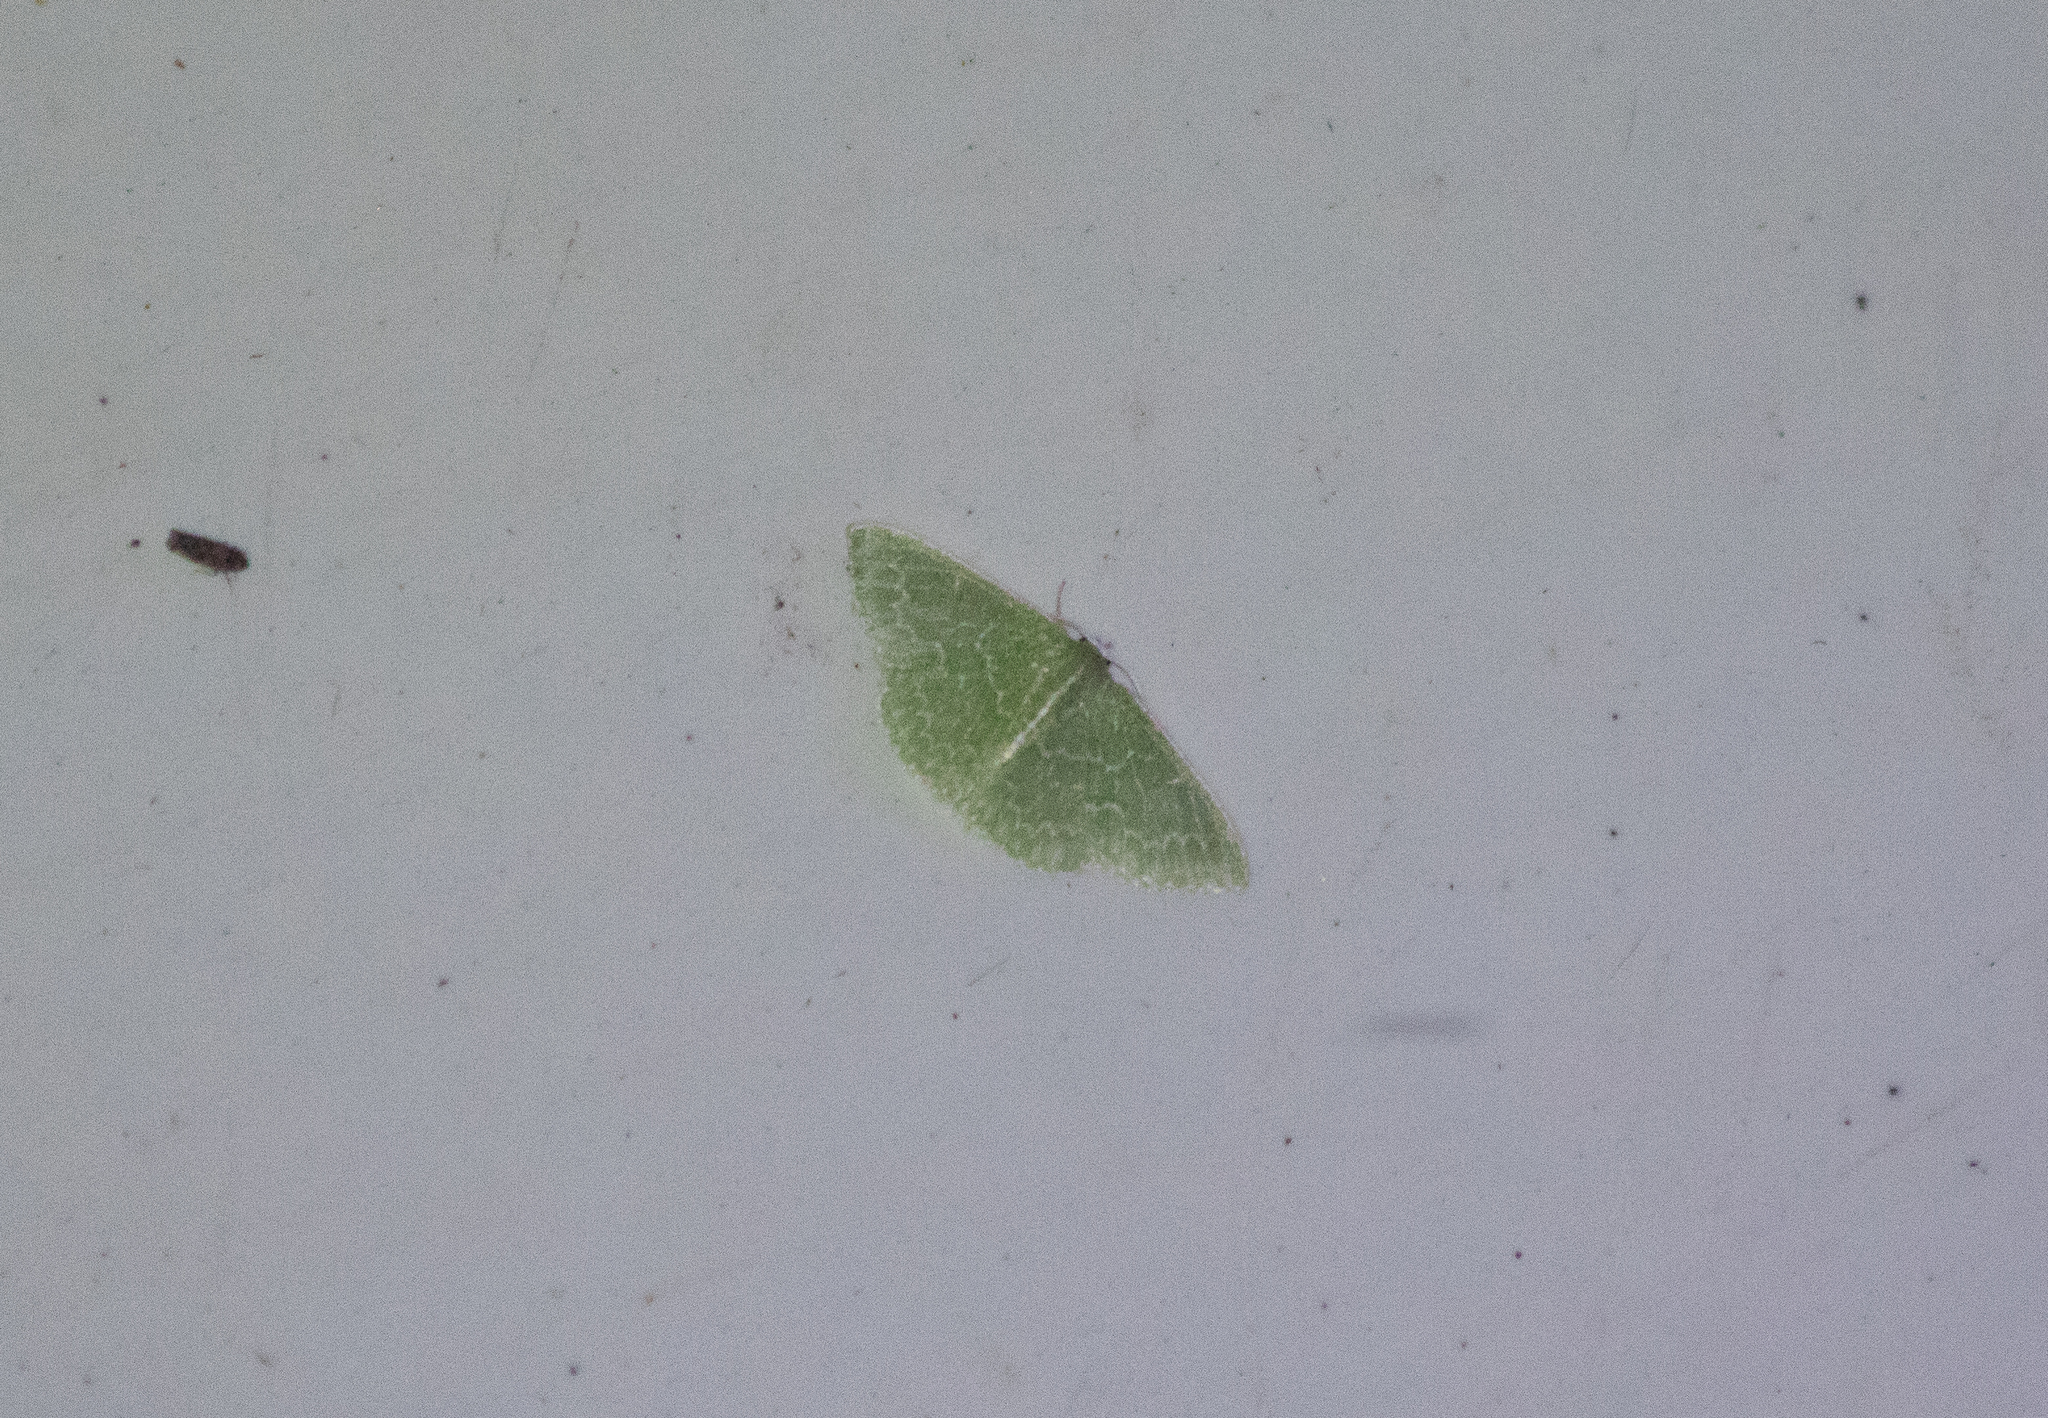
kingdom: Animalia
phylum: Arthropoda
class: Insecta
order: Lepidoptera
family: Geometridae
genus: Synchlora
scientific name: Synchlora frondaria
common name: Southern emerald
